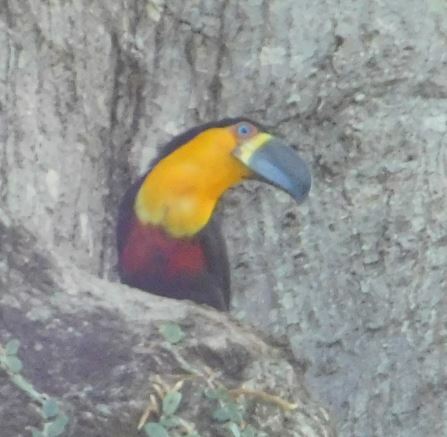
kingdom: Animalia
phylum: Chordata
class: Aves
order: Piciformes
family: Ramphastidae
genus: Ramphastos
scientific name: Ramphastos vitellinus
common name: Channel-billed toucan
